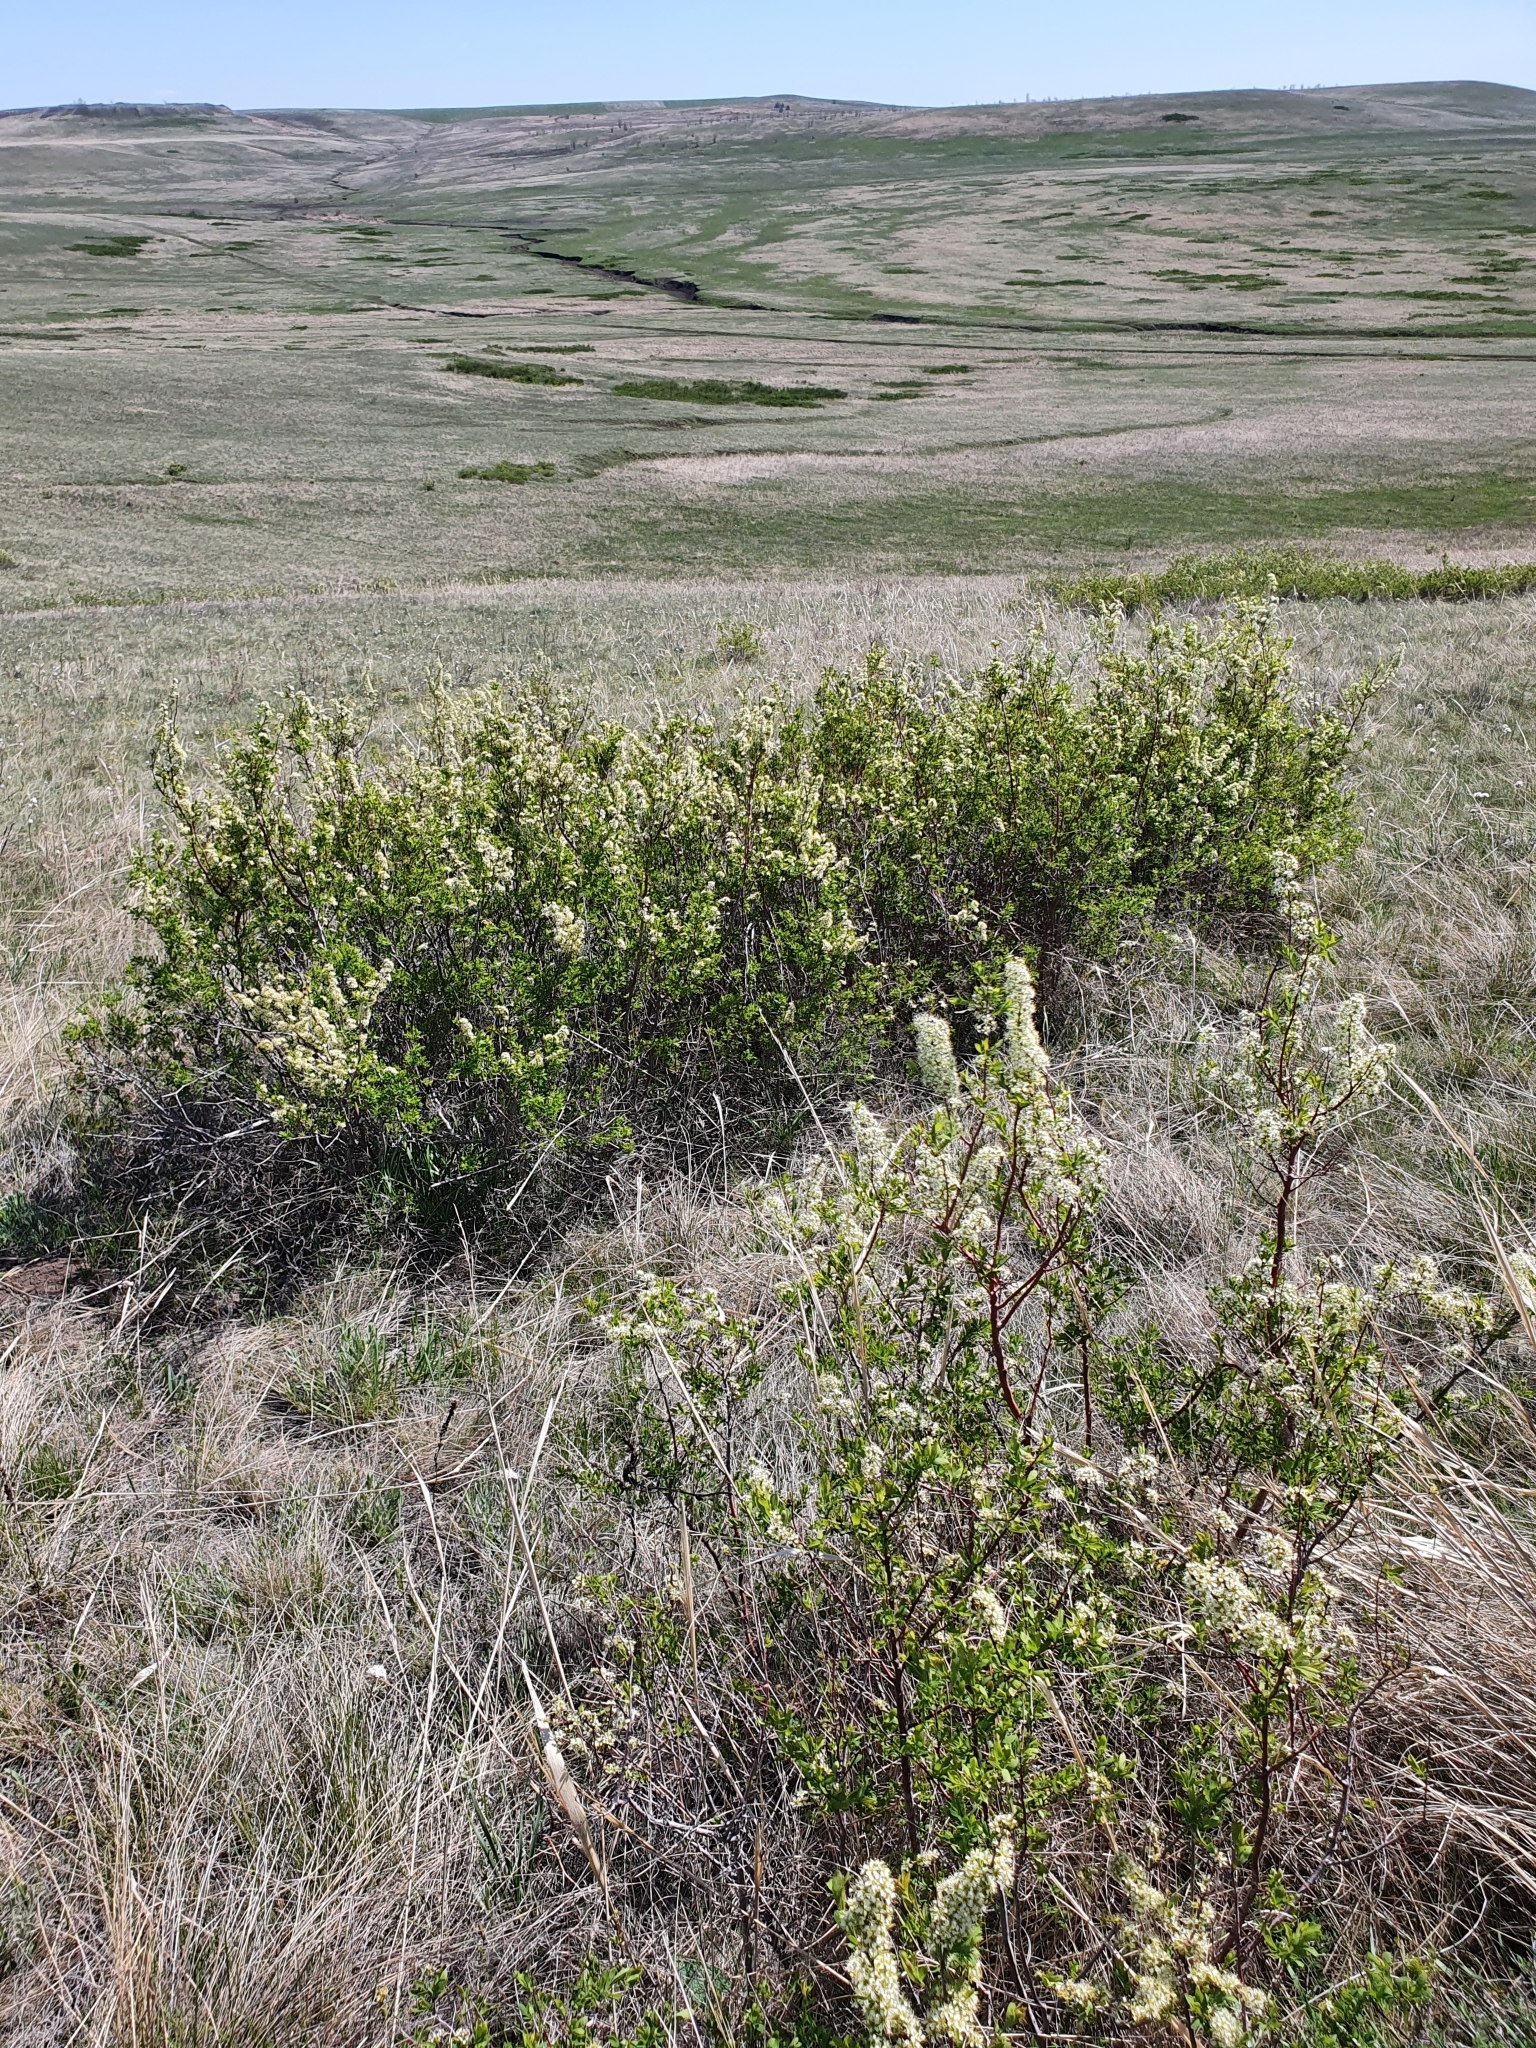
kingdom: Plantae
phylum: Tracheophyta
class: Magnoliopsida
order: Rosales
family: Rosaceae
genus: Spiraea
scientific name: Spiraea hypericifolia
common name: Iberian spirea
